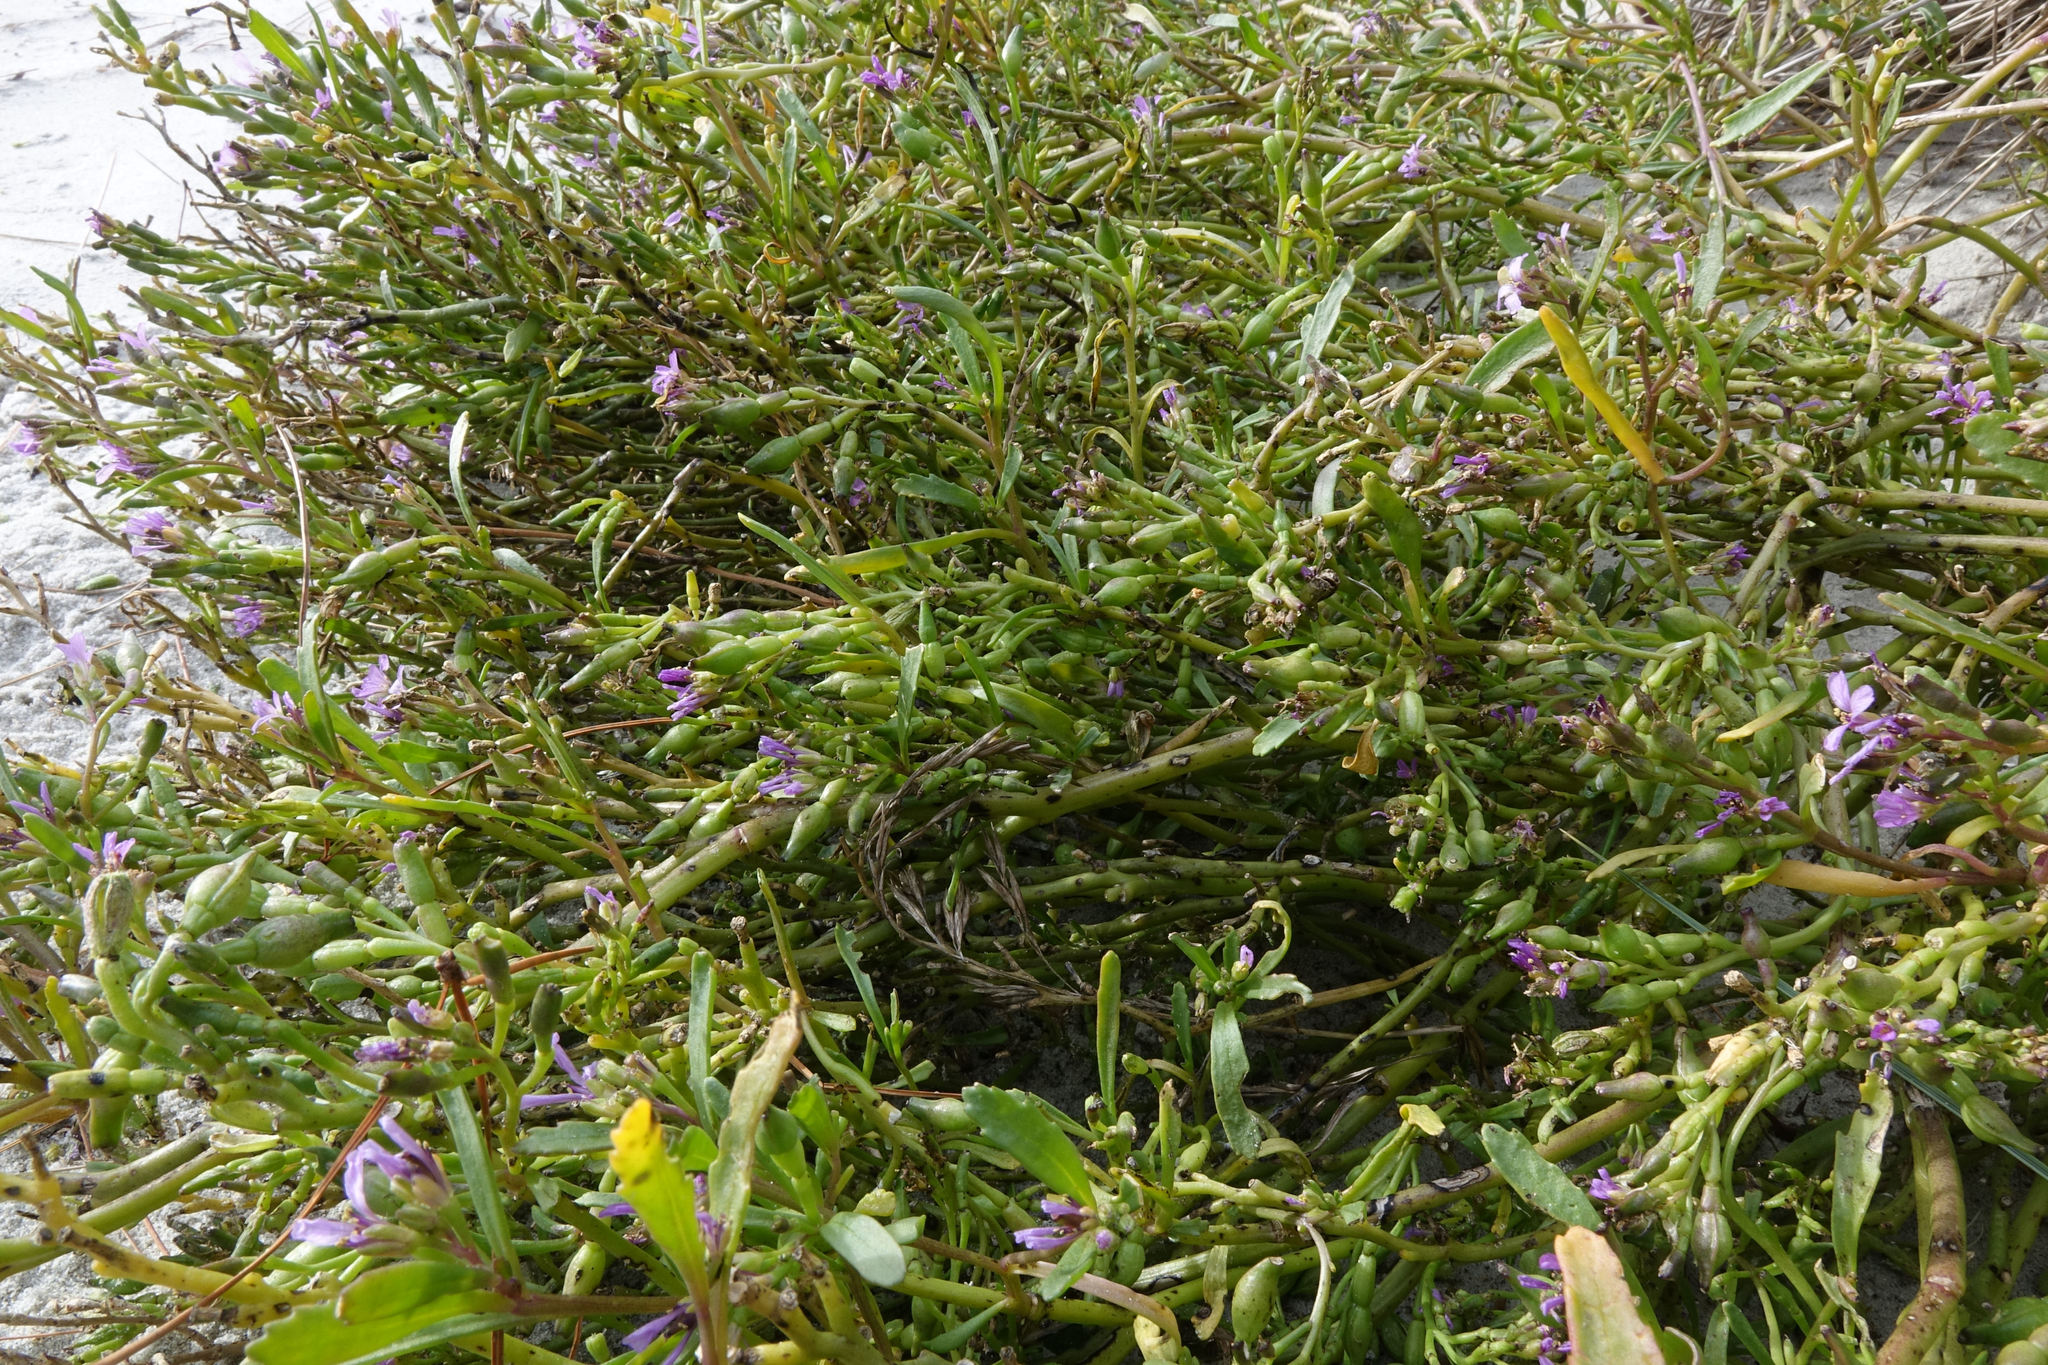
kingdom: Plantae
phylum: Tracheophyta
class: Magnoliopsida
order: Brassicales
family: Brassicaceae
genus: Cakile
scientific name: Cakile edentula
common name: American sea rocket
